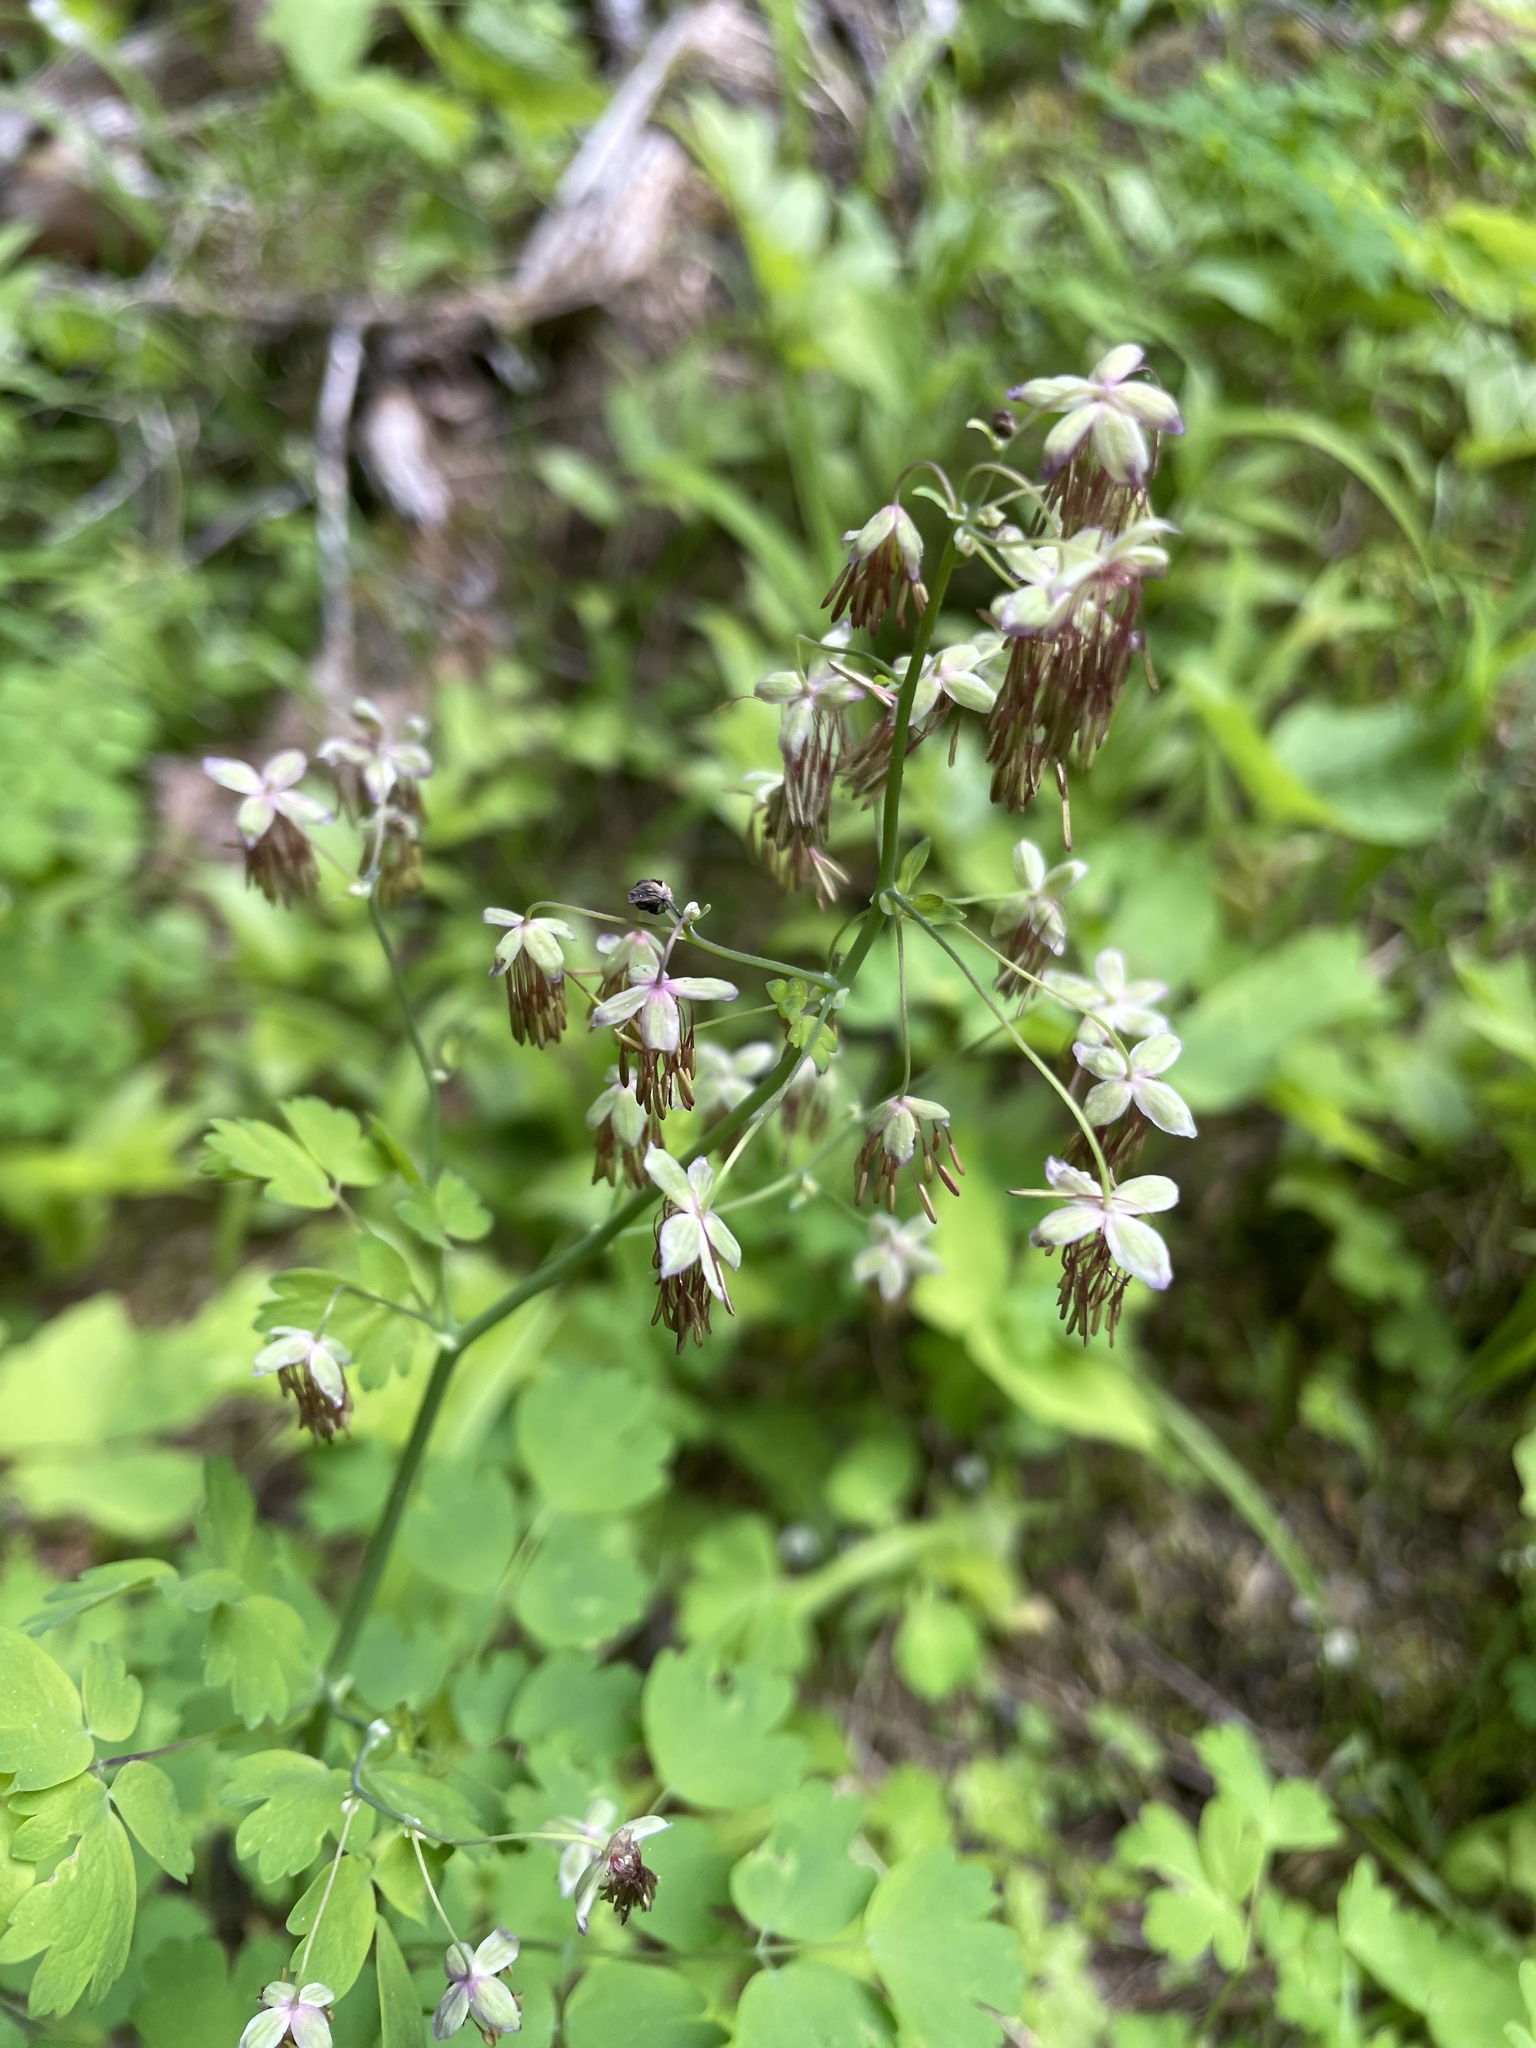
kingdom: Plantae
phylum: Tracheophyta
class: Magnoliopsida
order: Ranunculales
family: Ranunculaceae
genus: Thalictrum
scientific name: Thalictrum occidentale
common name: Western meadow-rue
